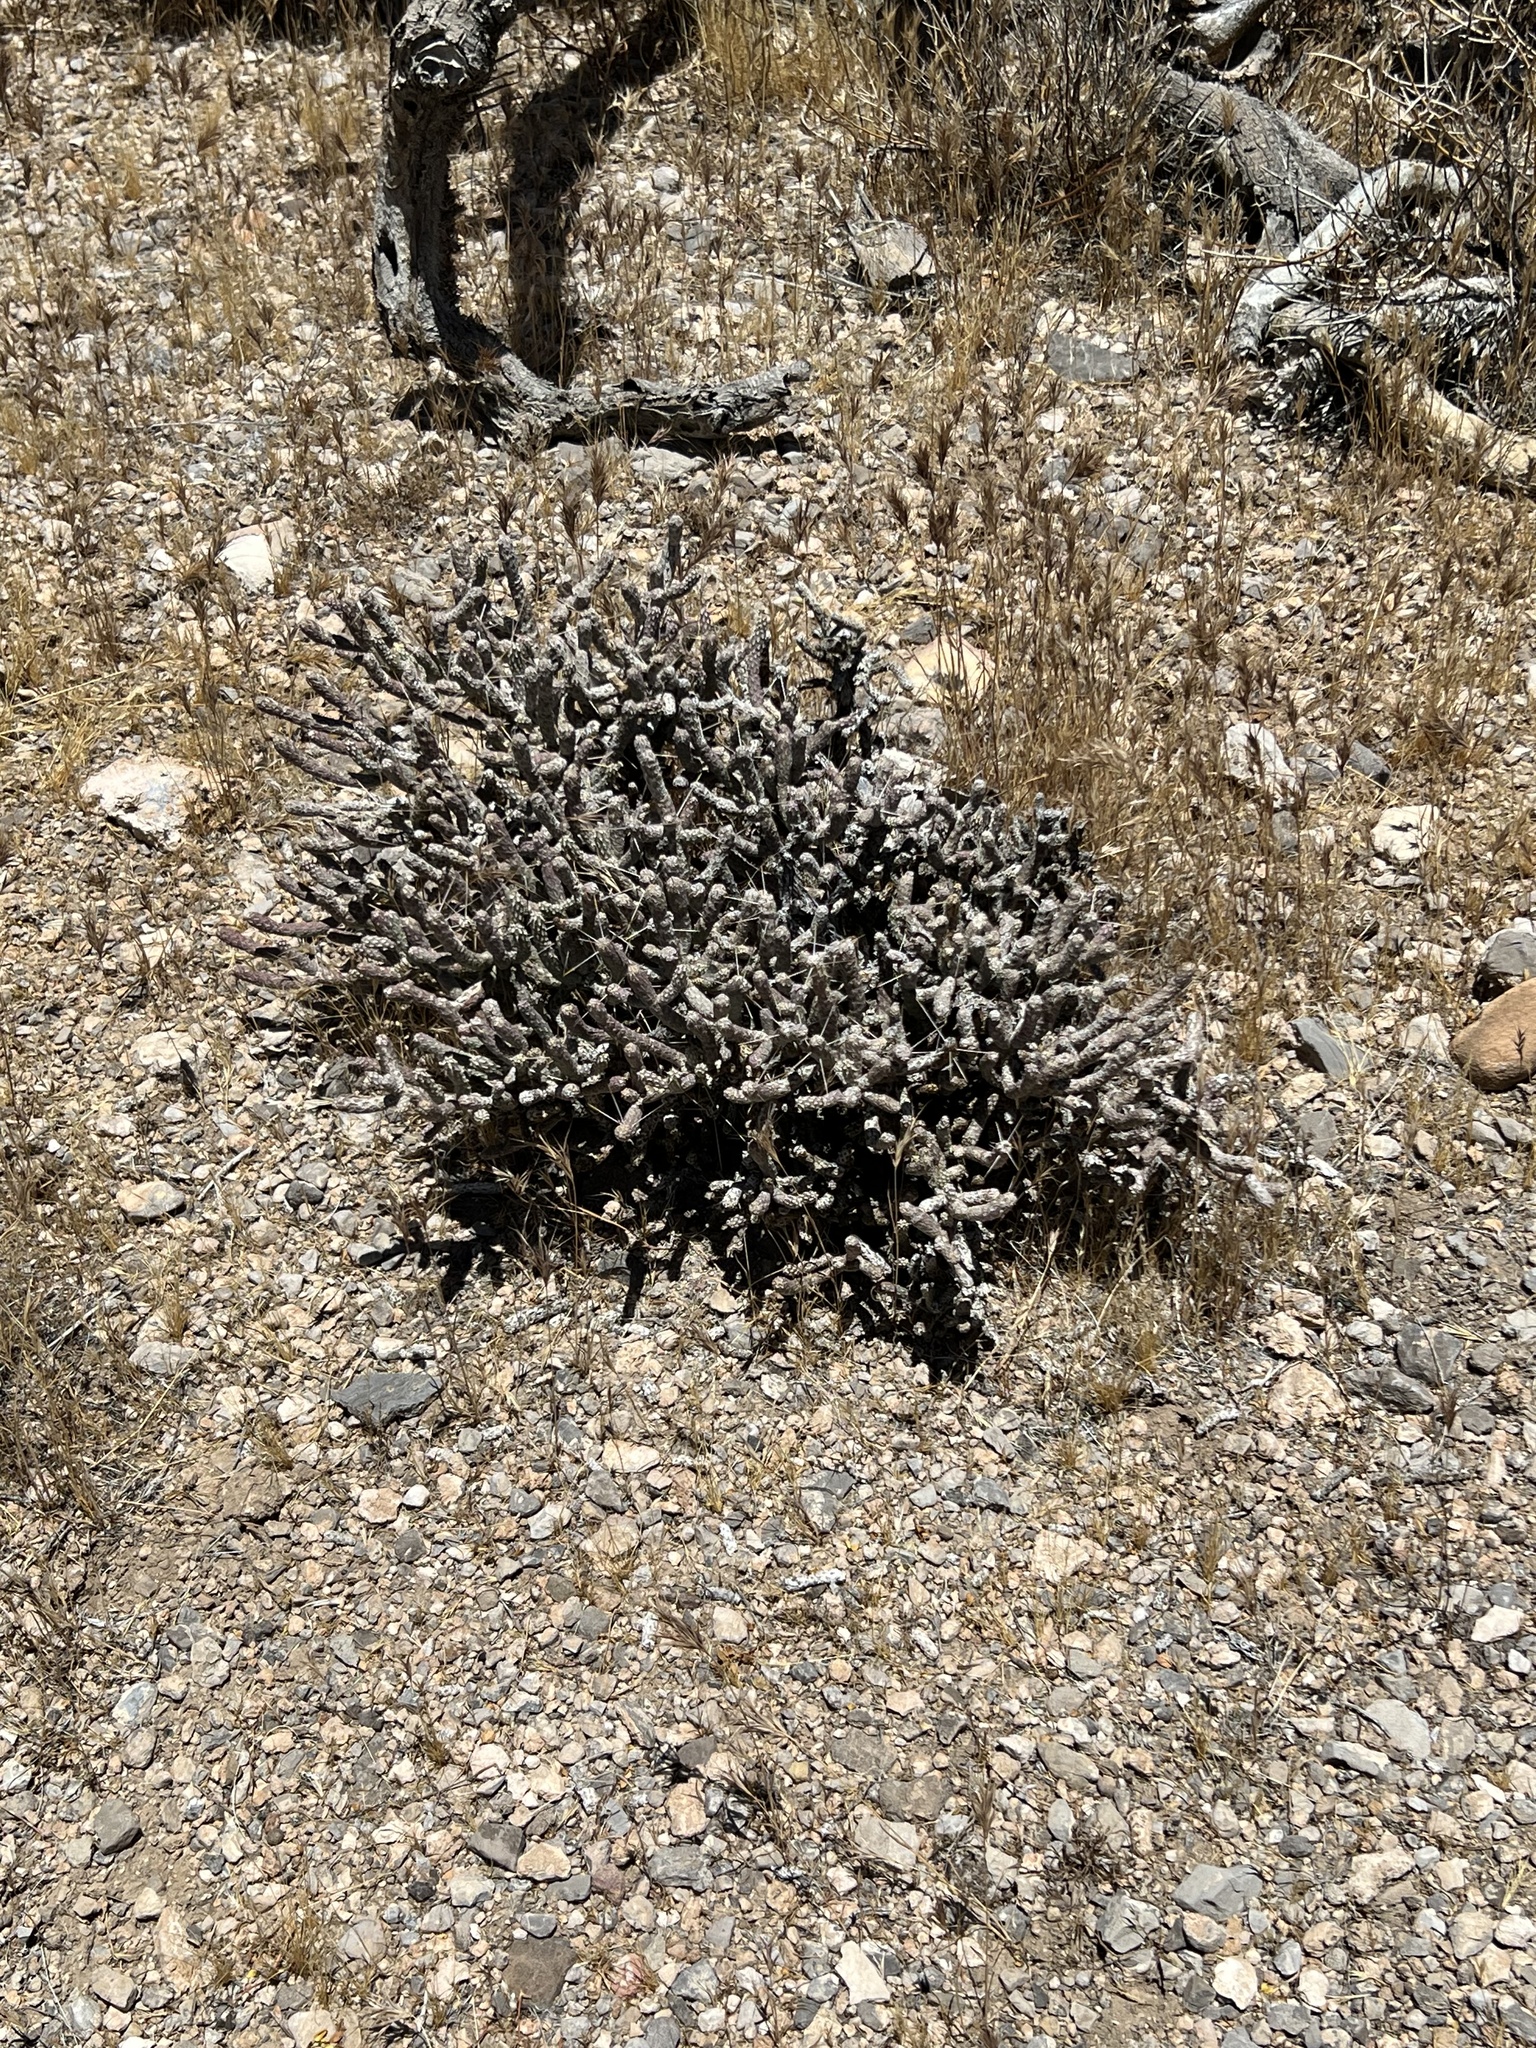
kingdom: Plantae
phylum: Tracheophyta
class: Magnoliopsida
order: Caryophyllales
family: Cactaceae
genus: Cylindropuntia
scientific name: Cylindropuntia ramosissima
